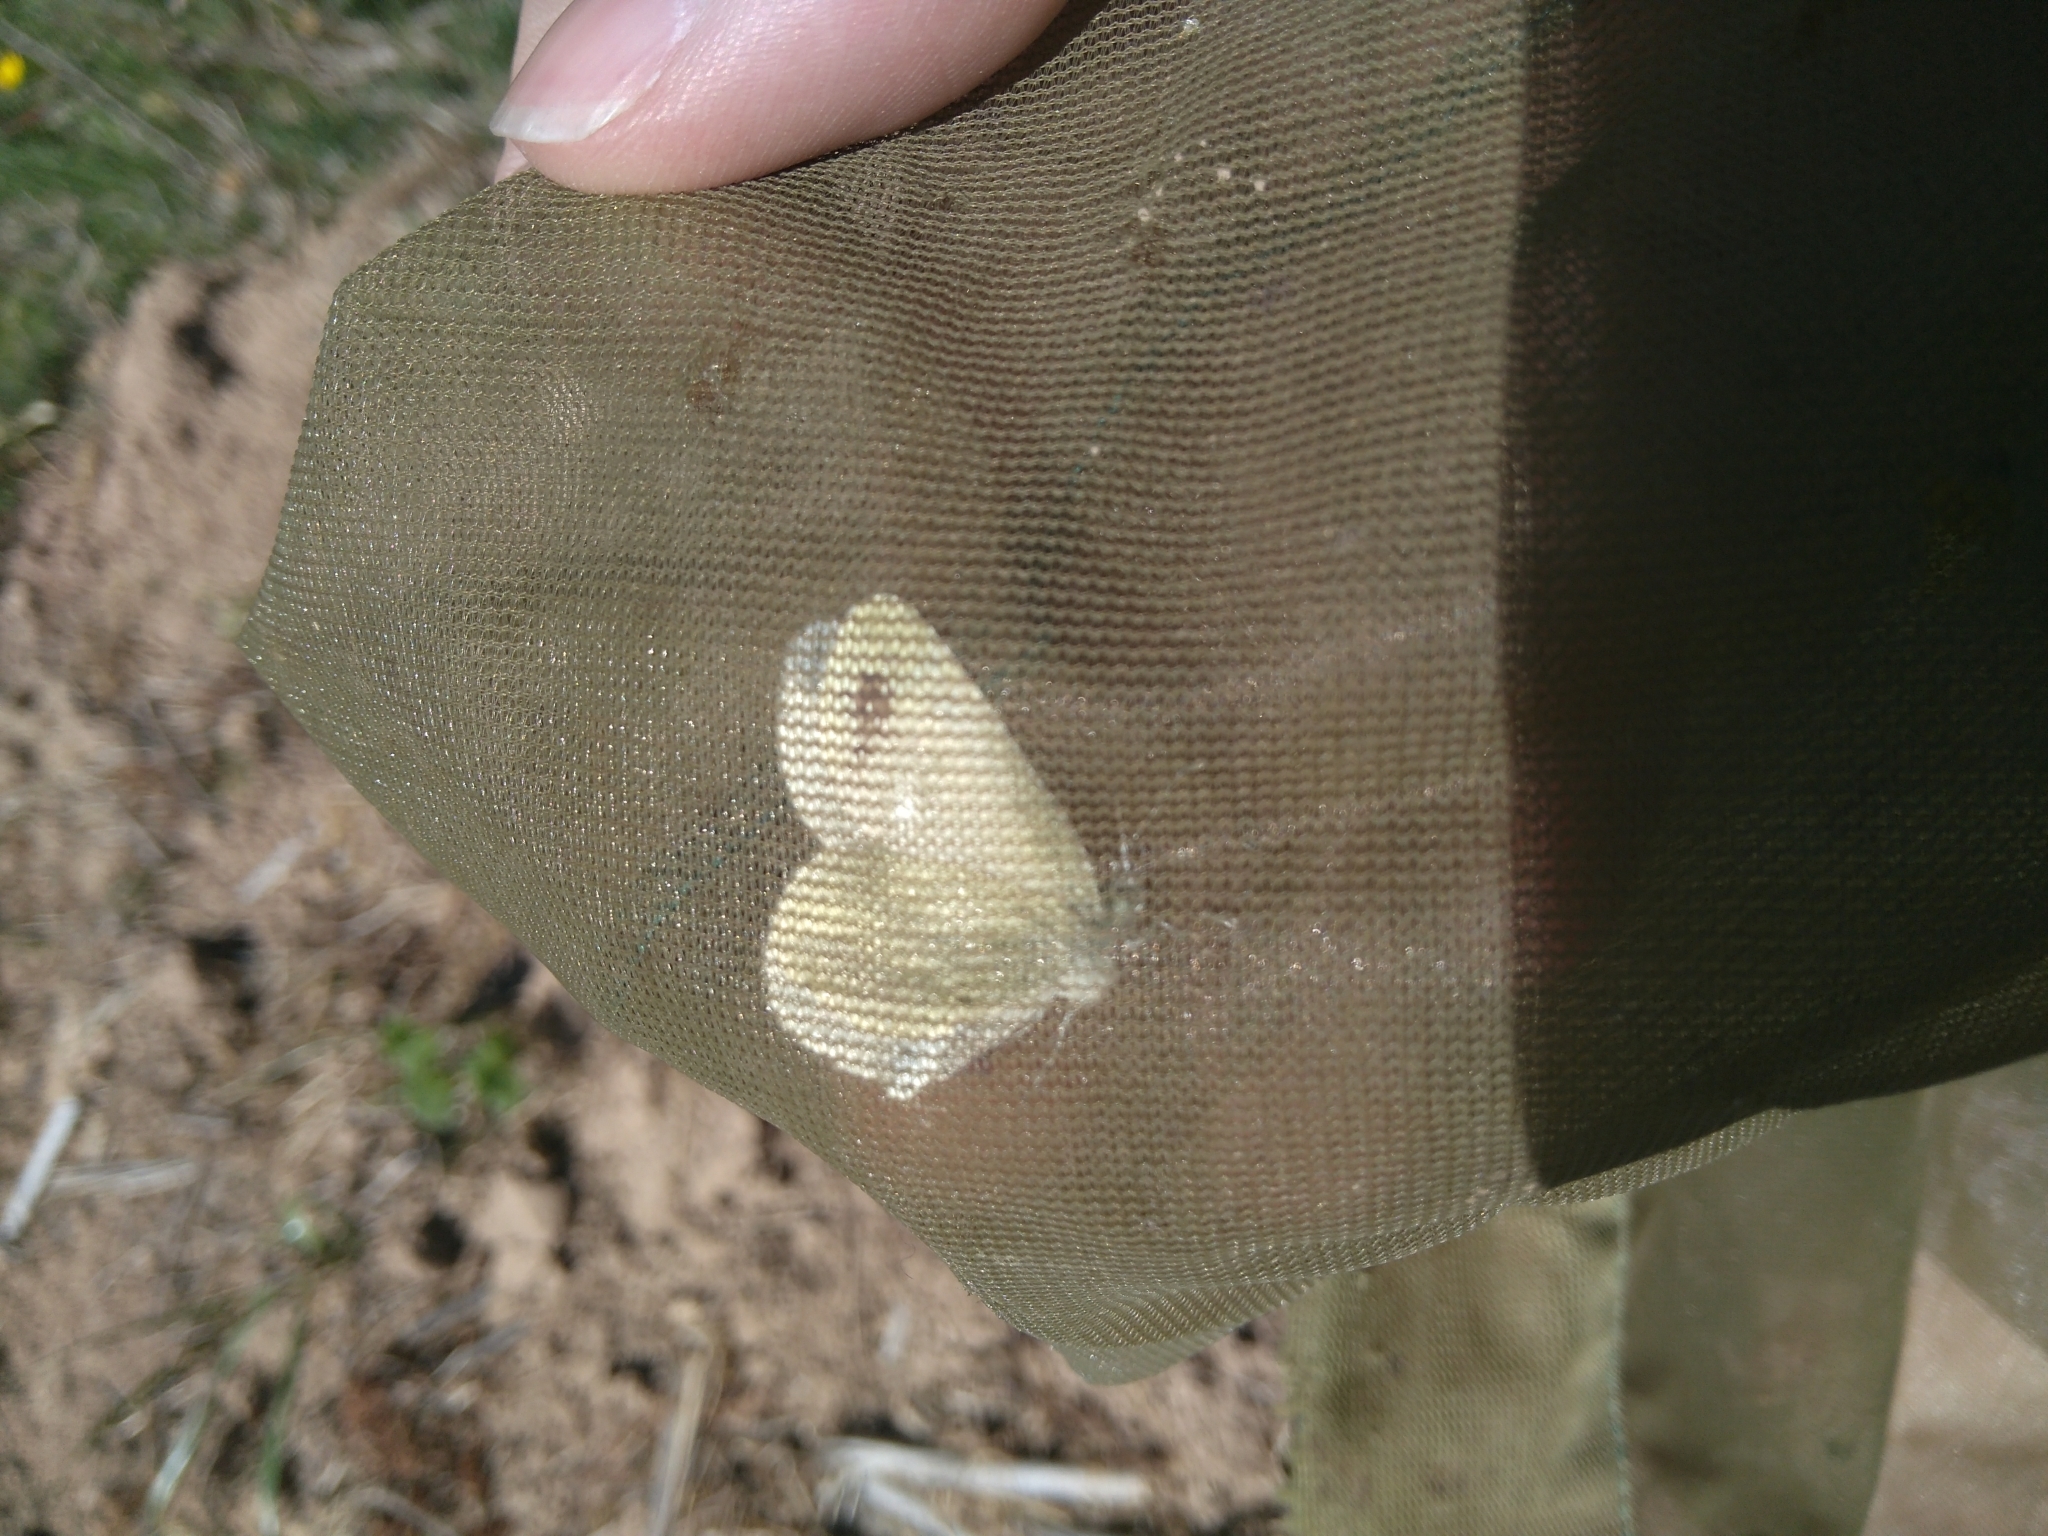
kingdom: Animalia
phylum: Arthropoda
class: Insecta
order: Lepidoptera
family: Pieridae
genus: Leptidea
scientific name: Leptidea sinapis
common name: Wood white
